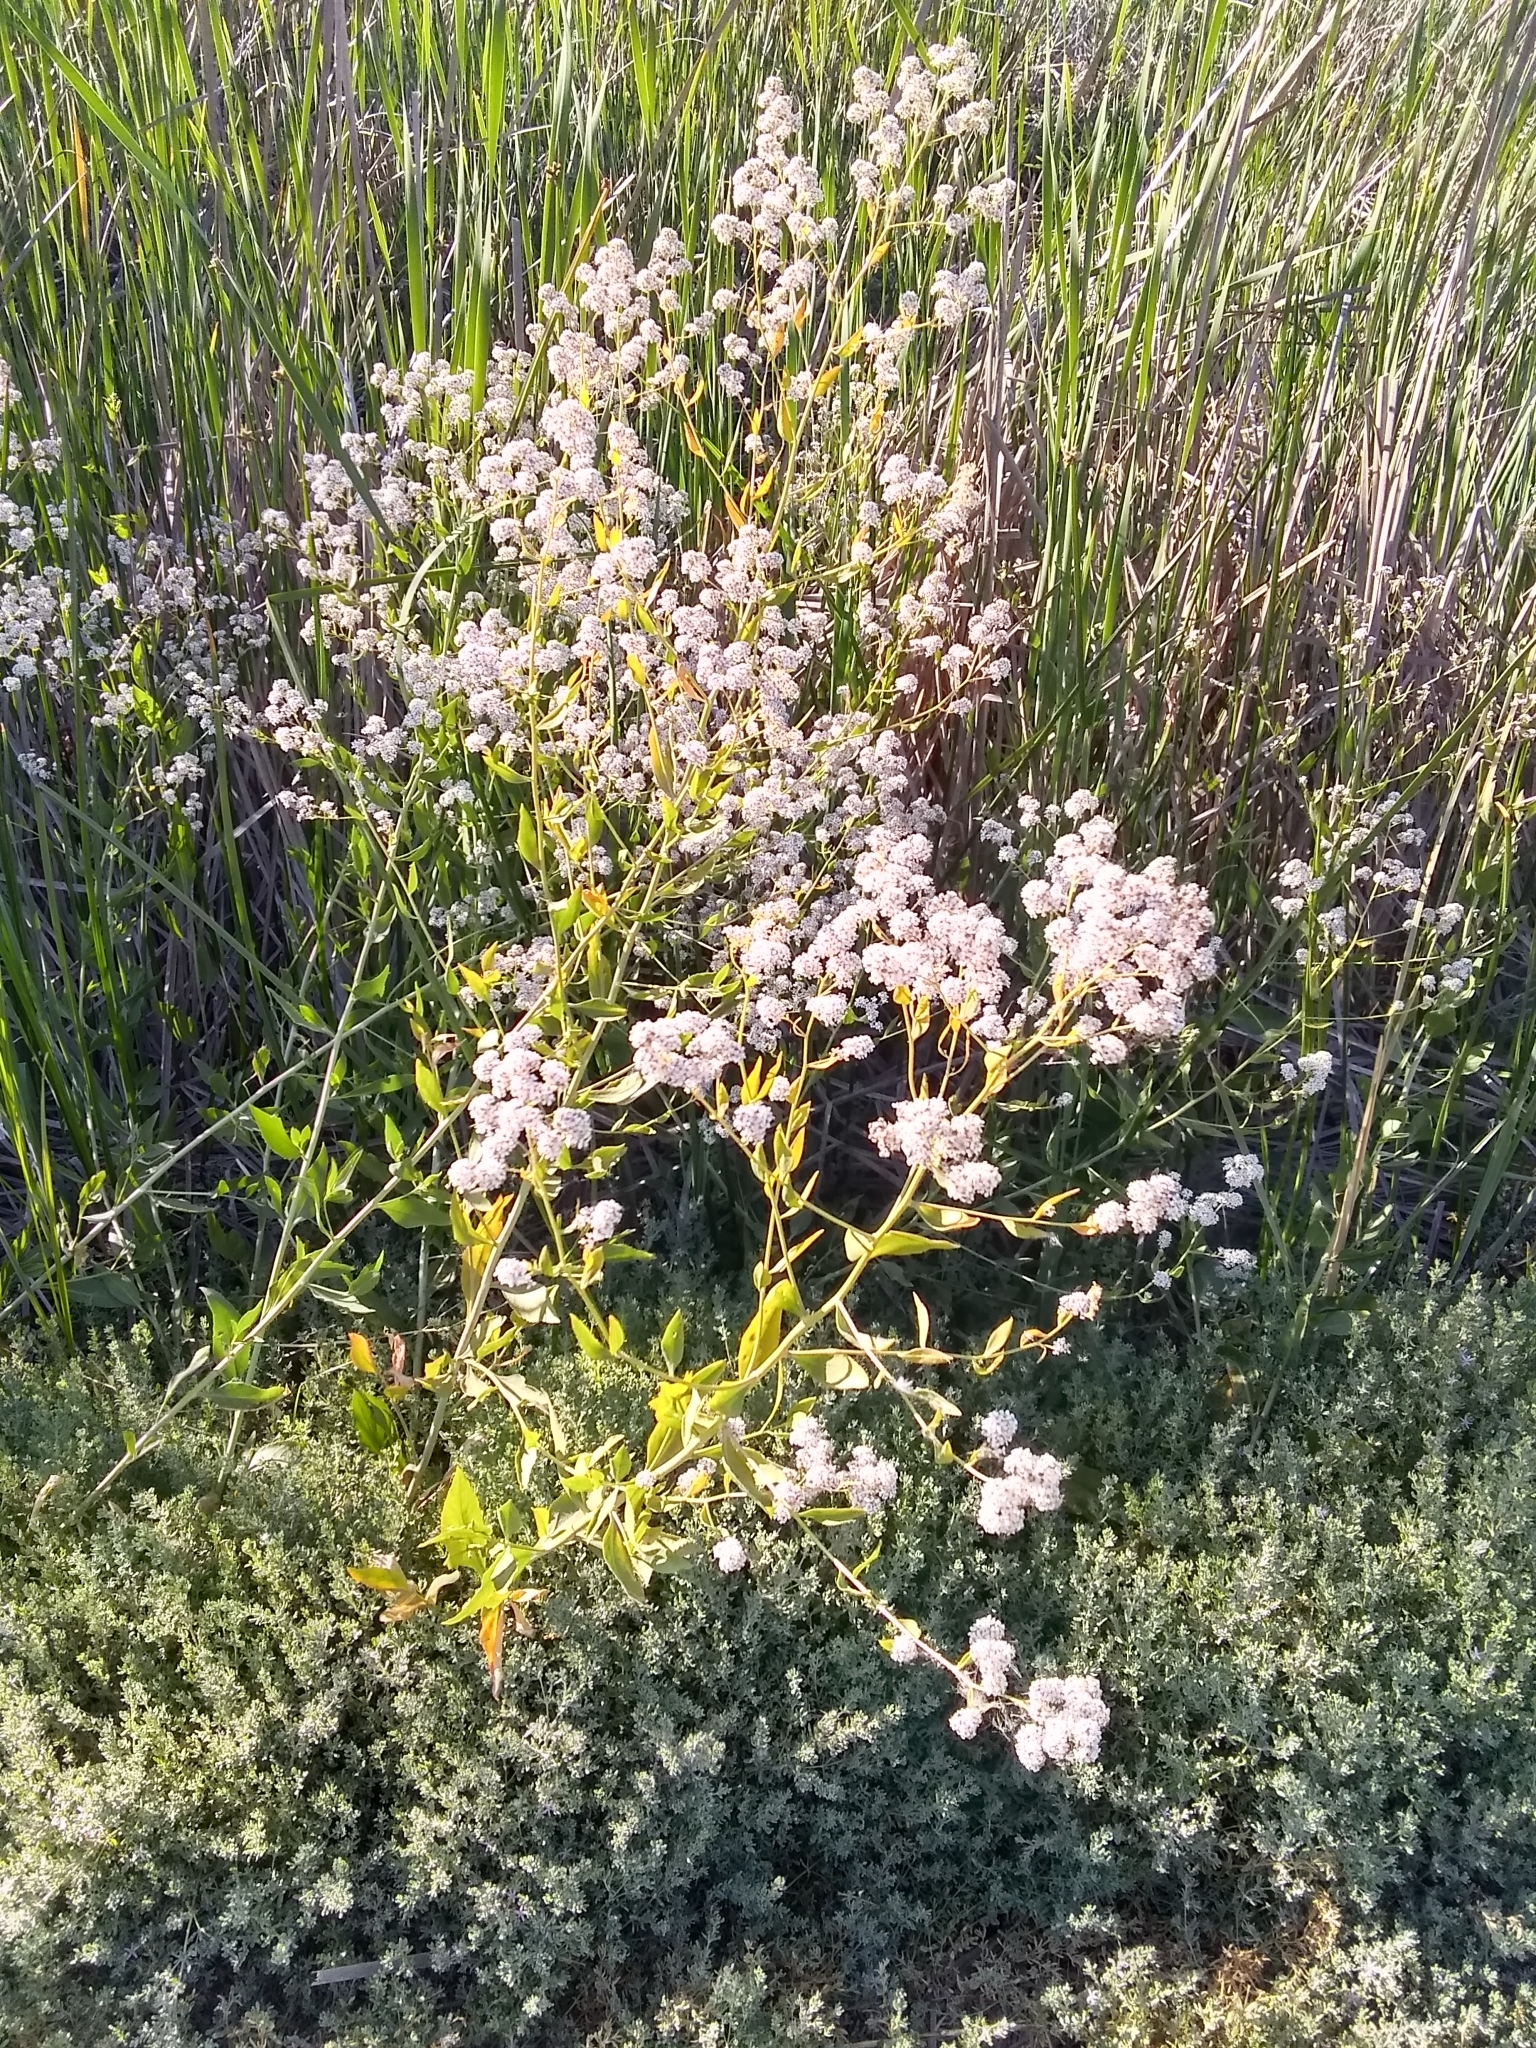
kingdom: Plantae
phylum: Tracheophyta
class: Magnoliopsida
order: Brassicales
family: Brassicaceae
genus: Lepidium
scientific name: Lepidium latifolium
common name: Dittander
